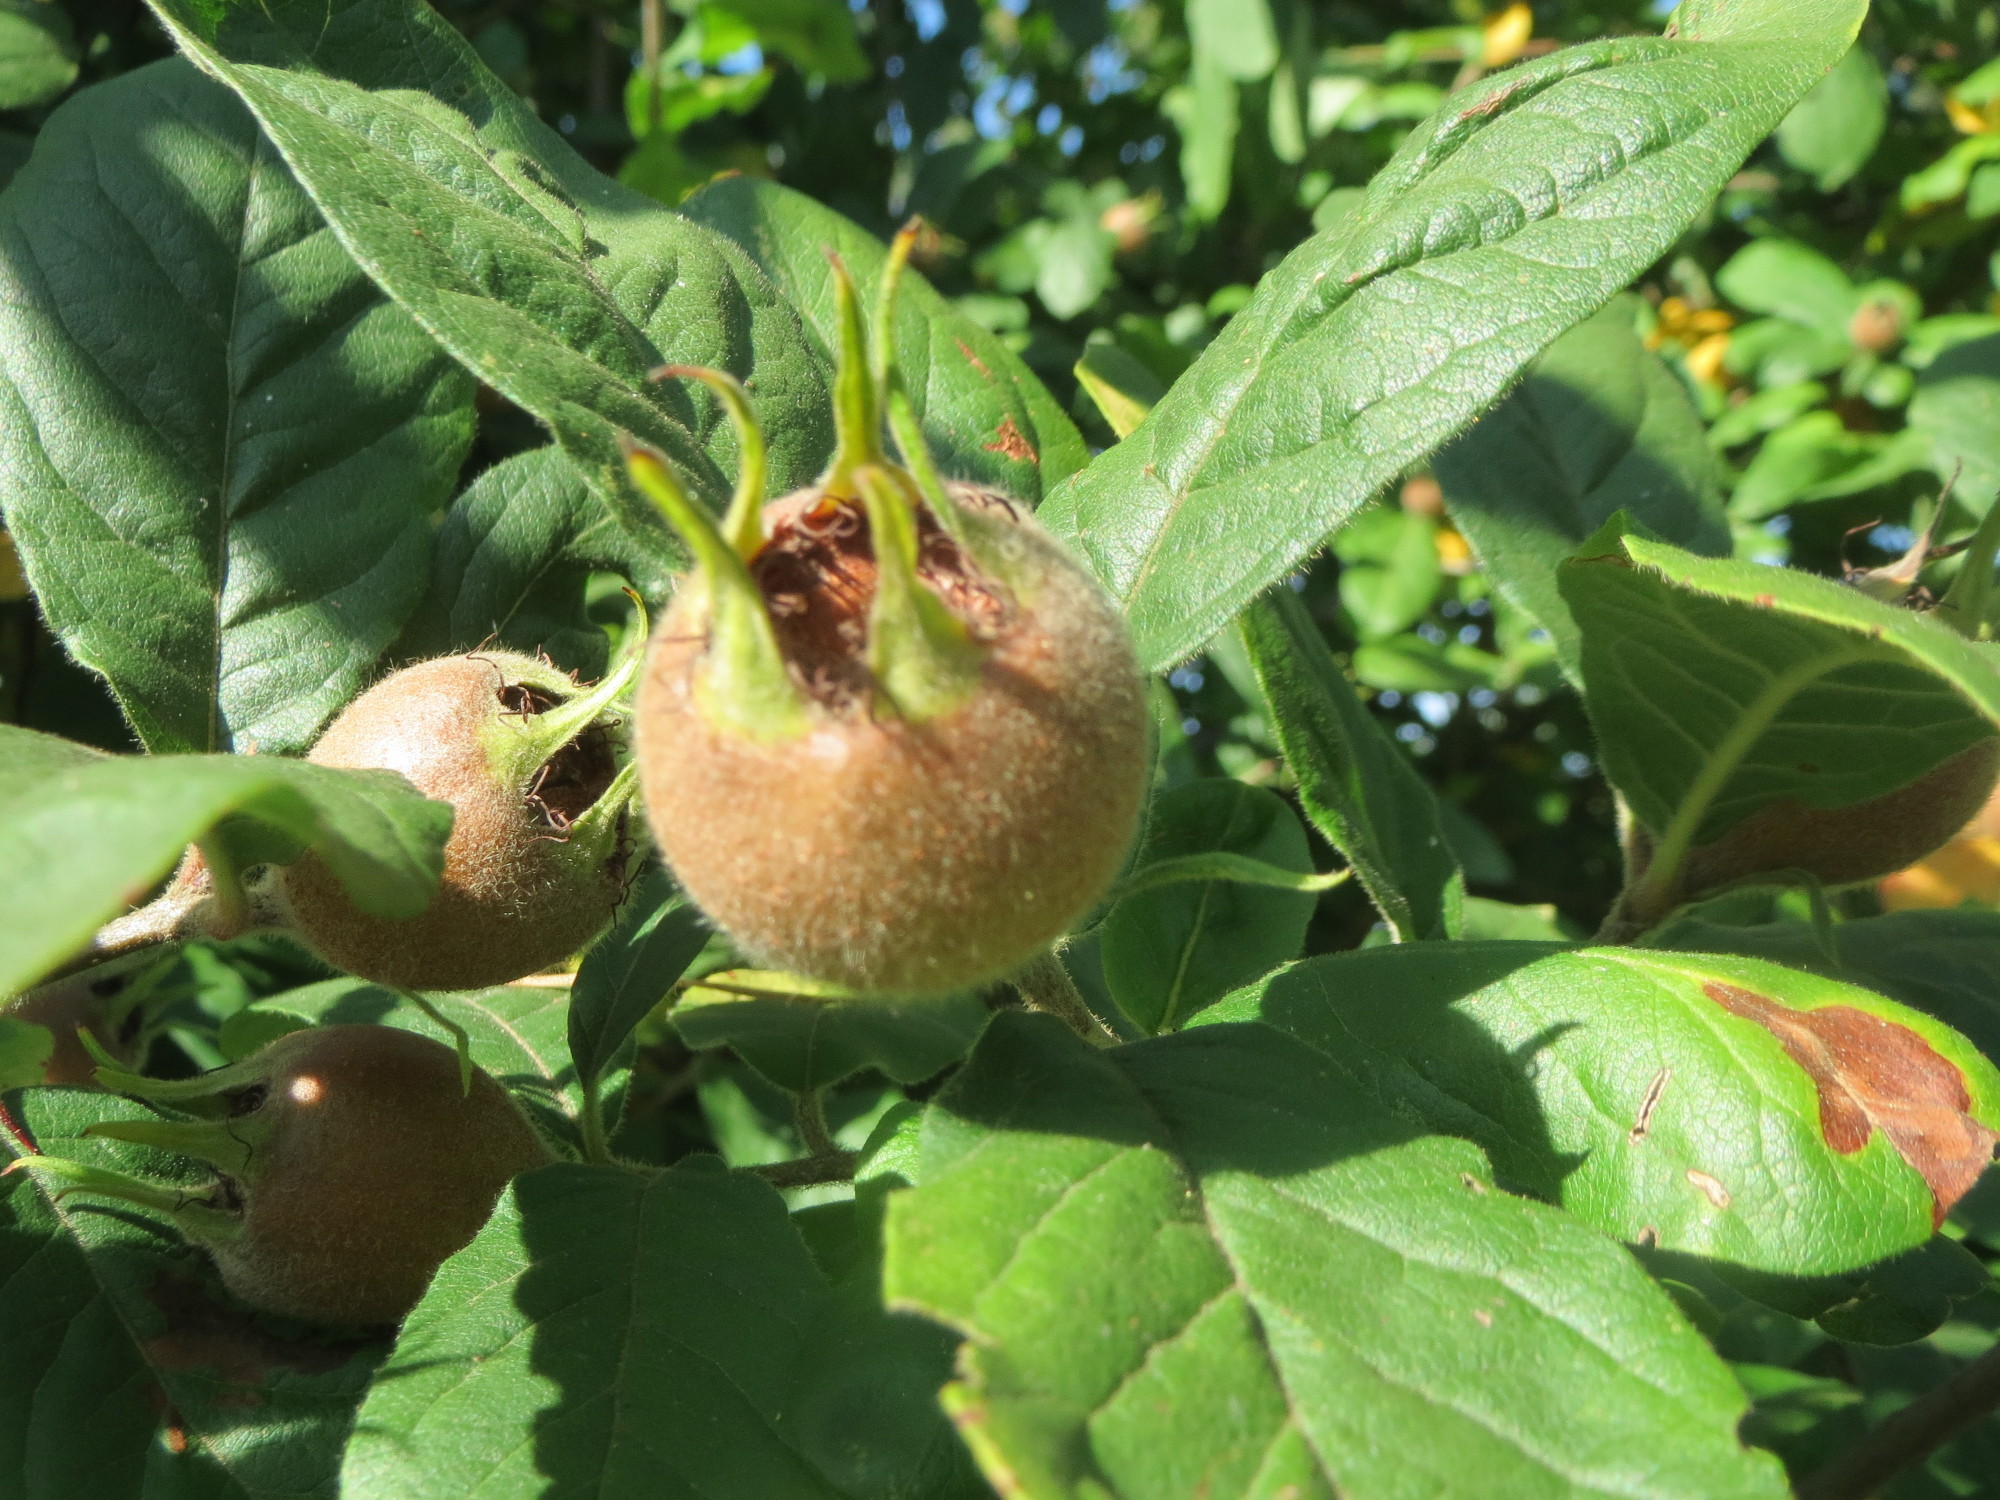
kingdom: Plantae
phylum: Tracheophyta
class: Magnoliopsida
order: Rosales
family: Rosaceae
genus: Mespilus
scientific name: Mespilus germanica
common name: Medlar
